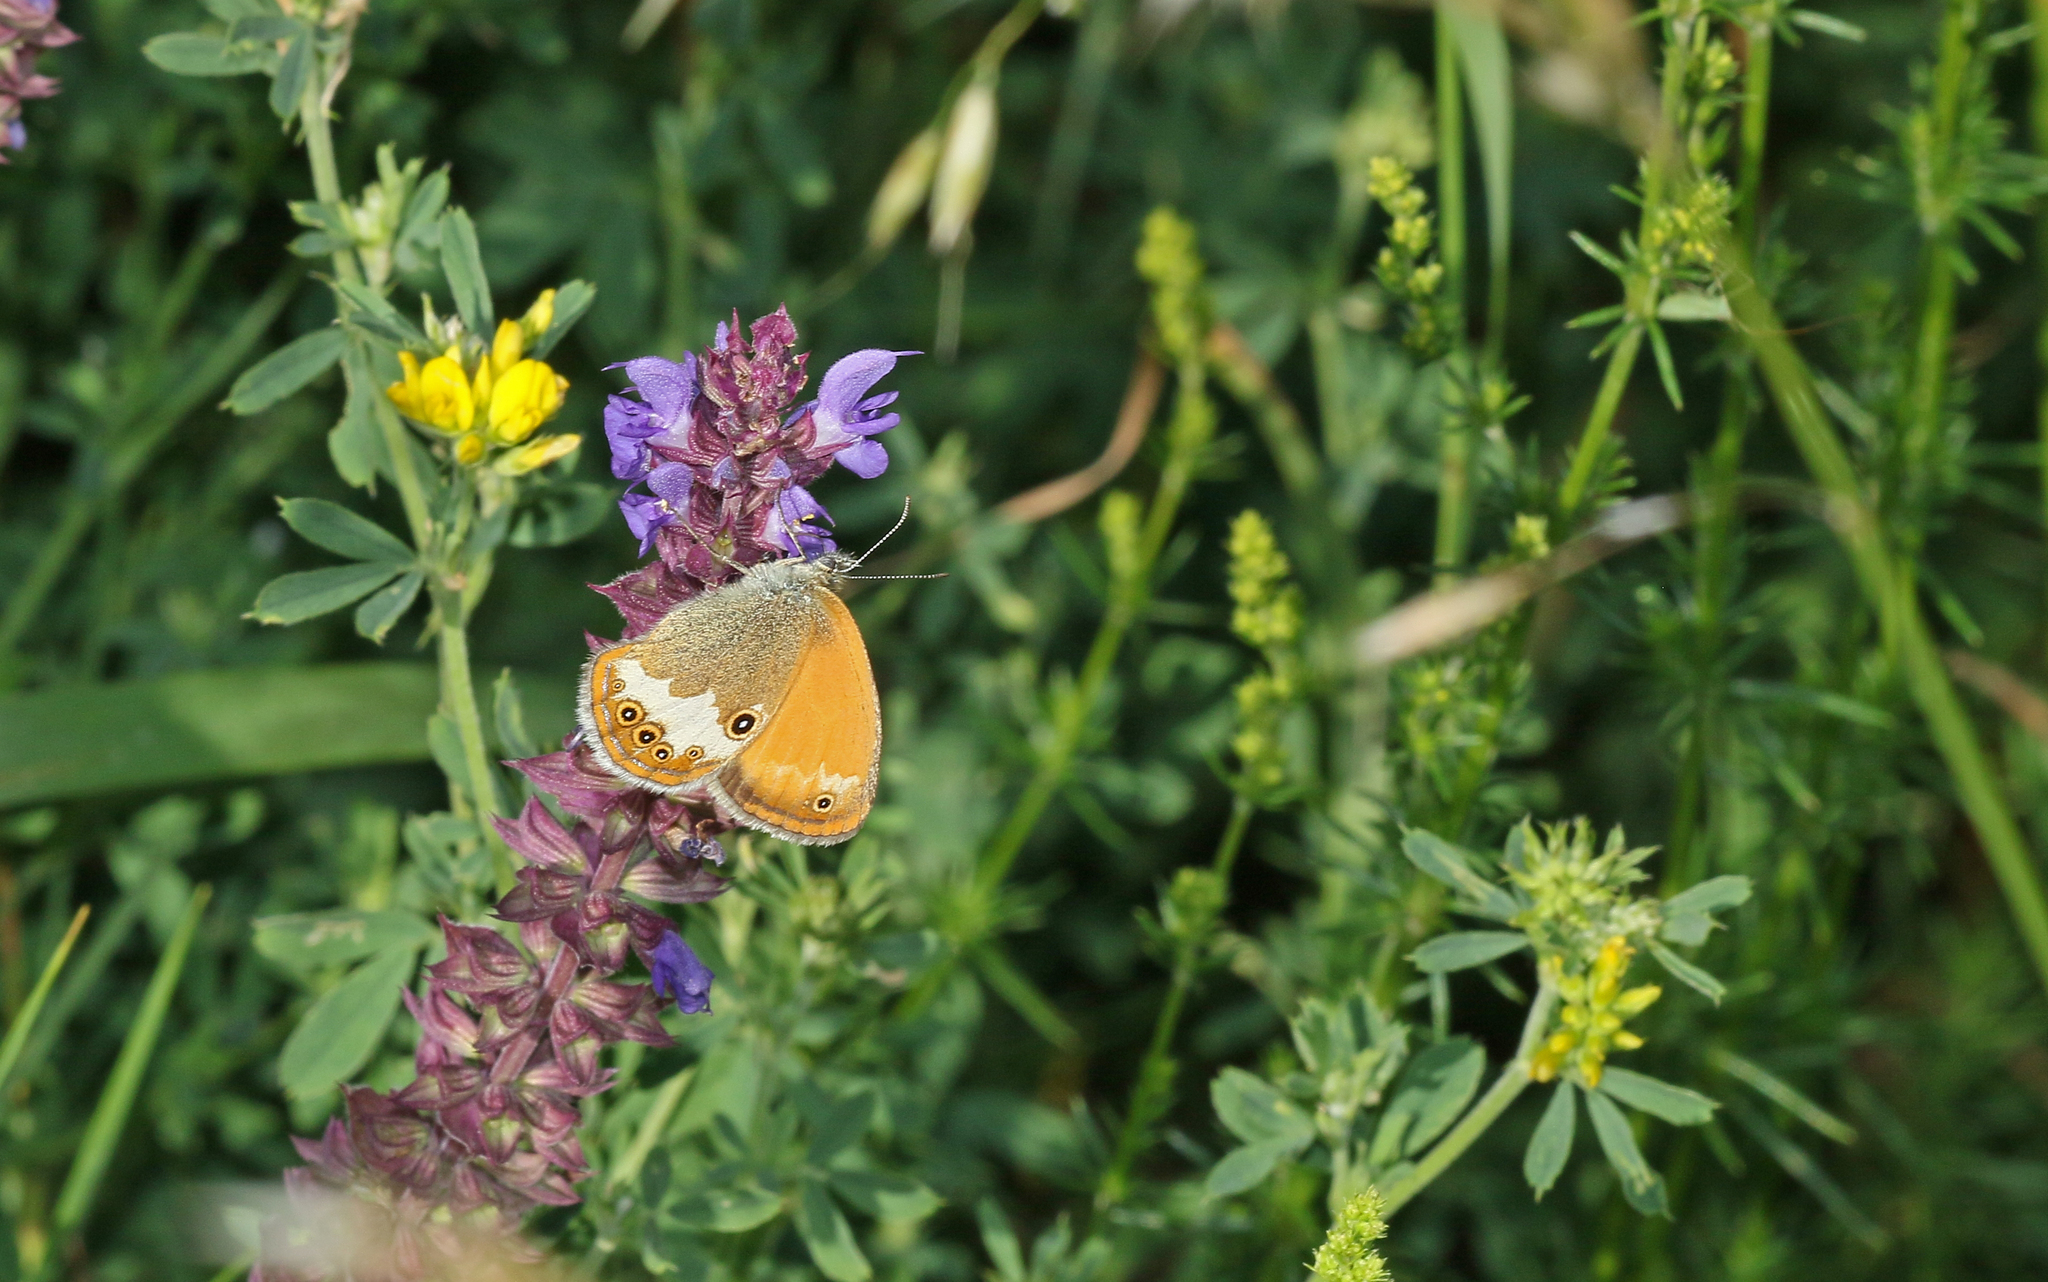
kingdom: Animalia
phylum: Arthropoda
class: Insecta
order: Lepidoptera
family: Nymphalidae
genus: Coenonympha
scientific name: Coenonympha arcania
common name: Pearly heath
